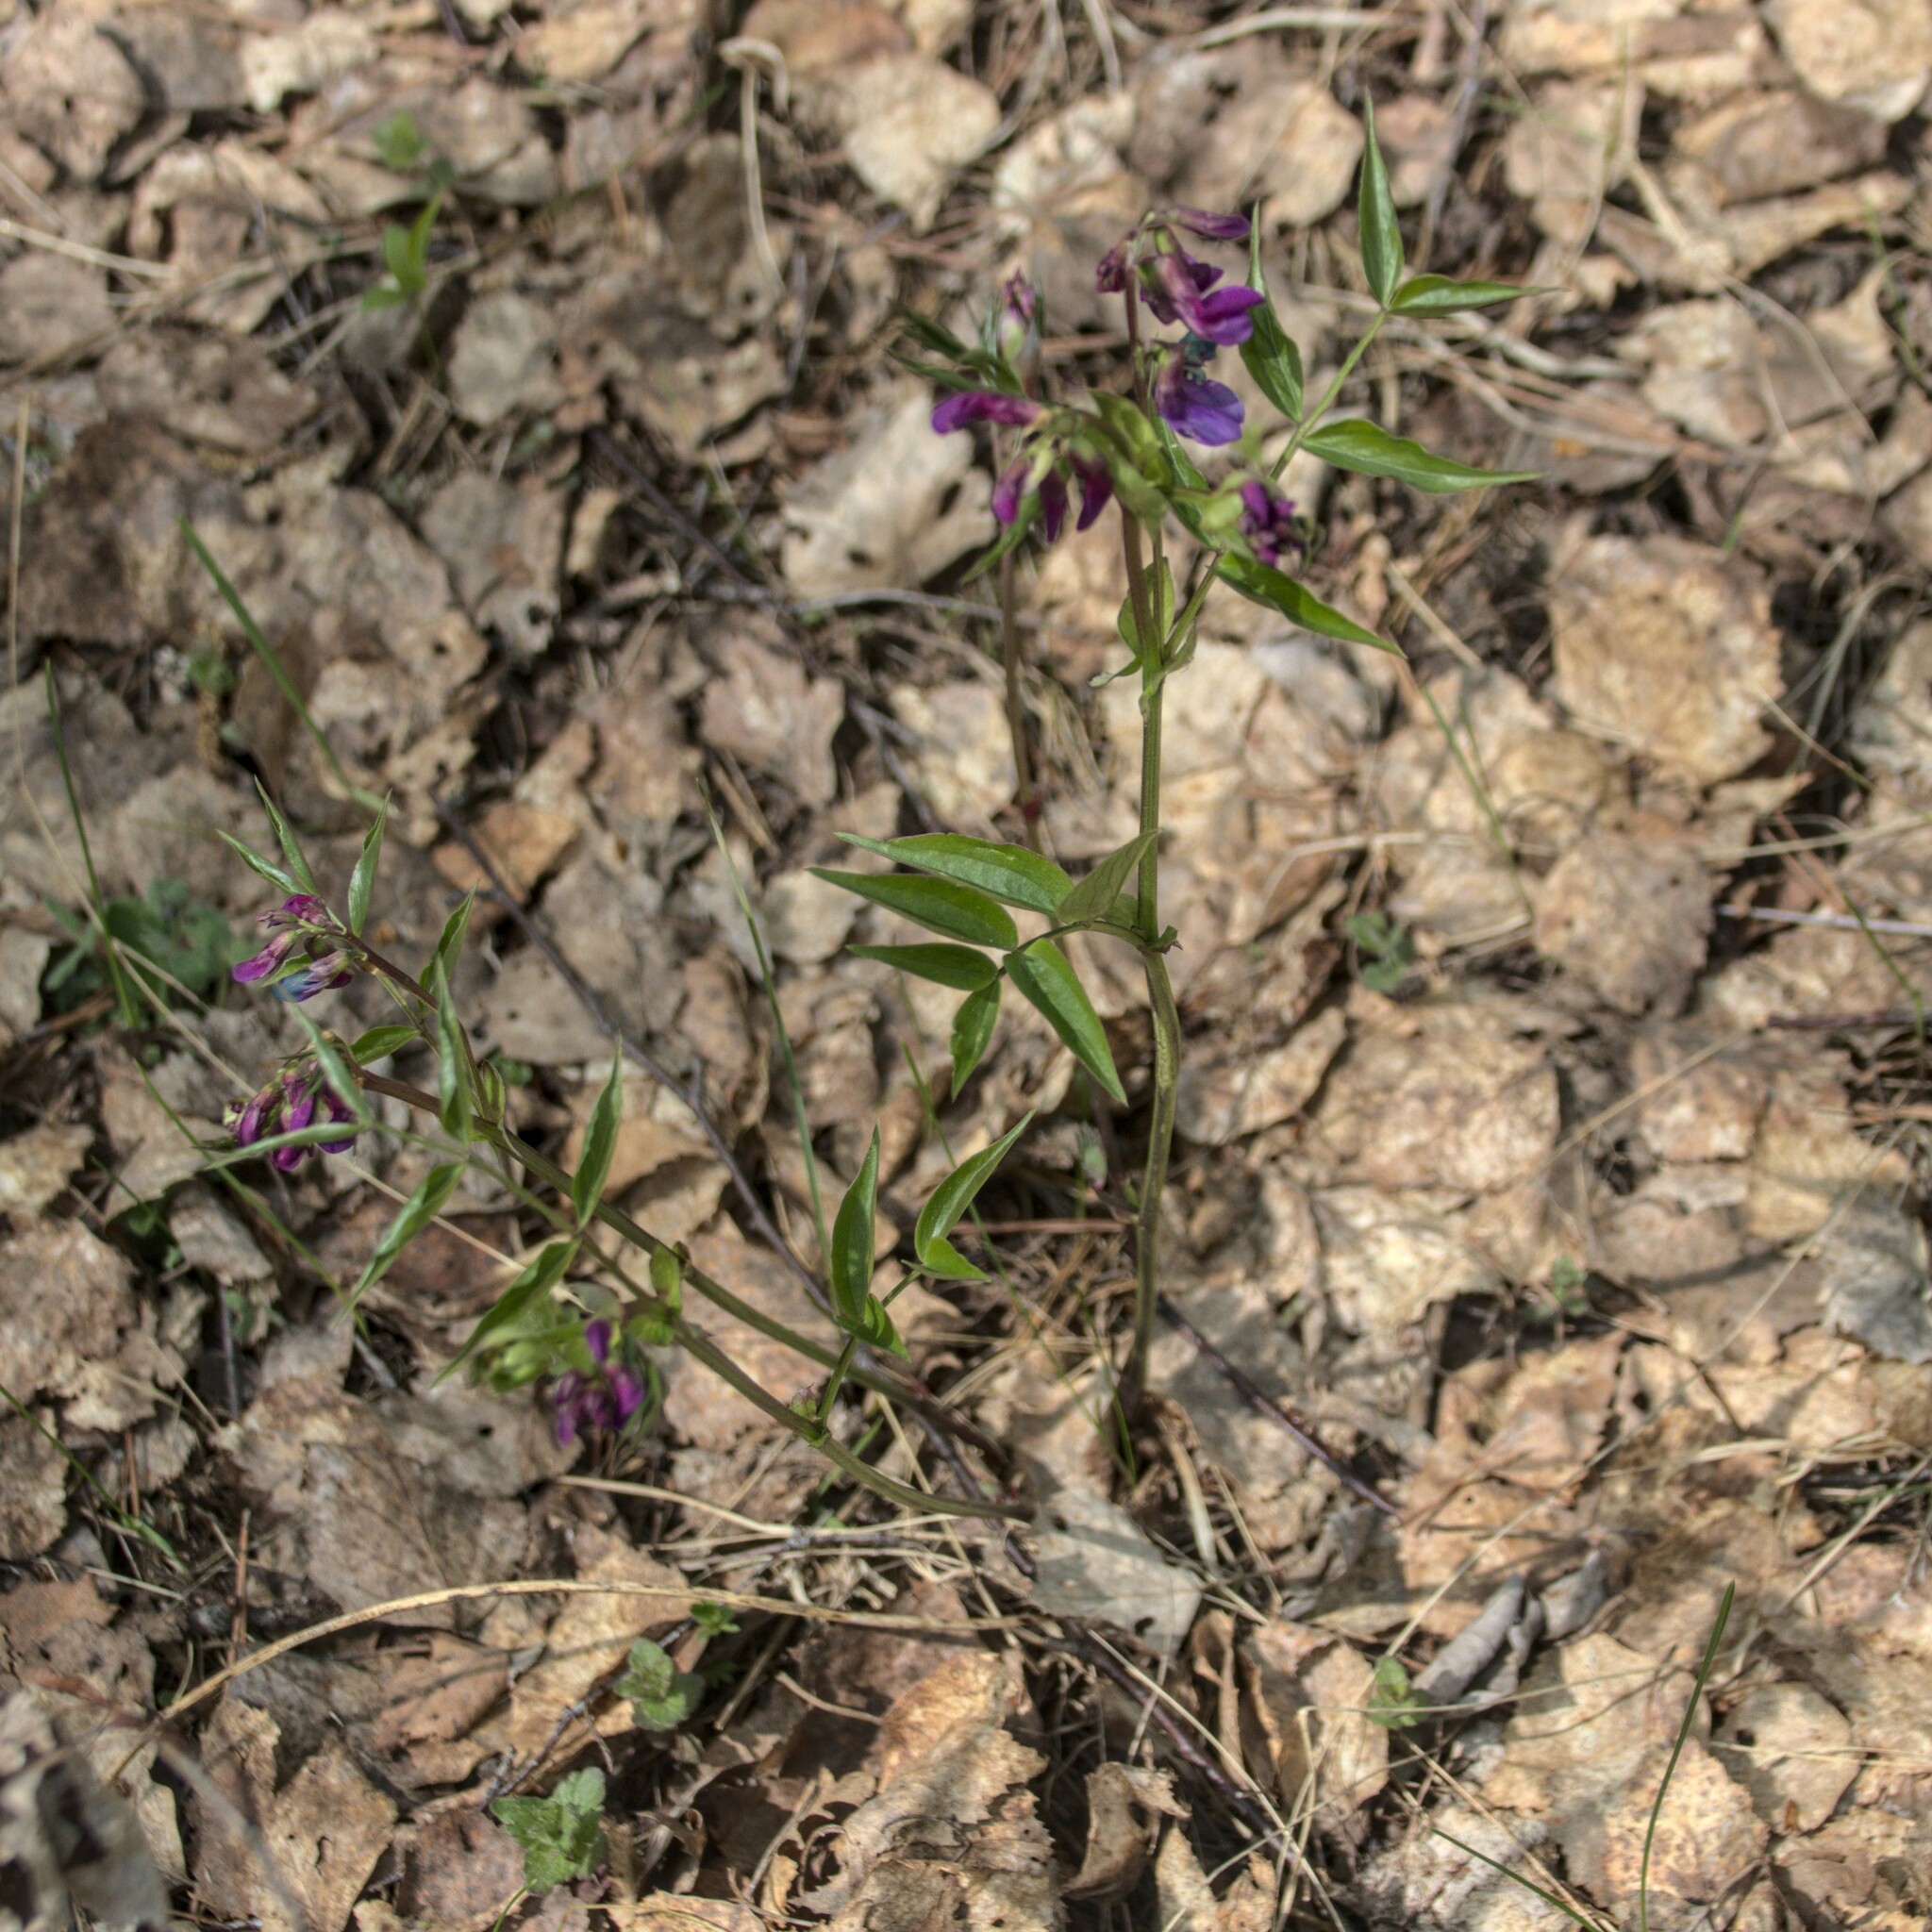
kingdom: Plantae
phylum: Tracheophyta
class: Magnoliopsida
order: Fabales
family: Fabaceae
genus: Lathyrus
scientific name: Lathyrus vernus
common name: Spring pea
